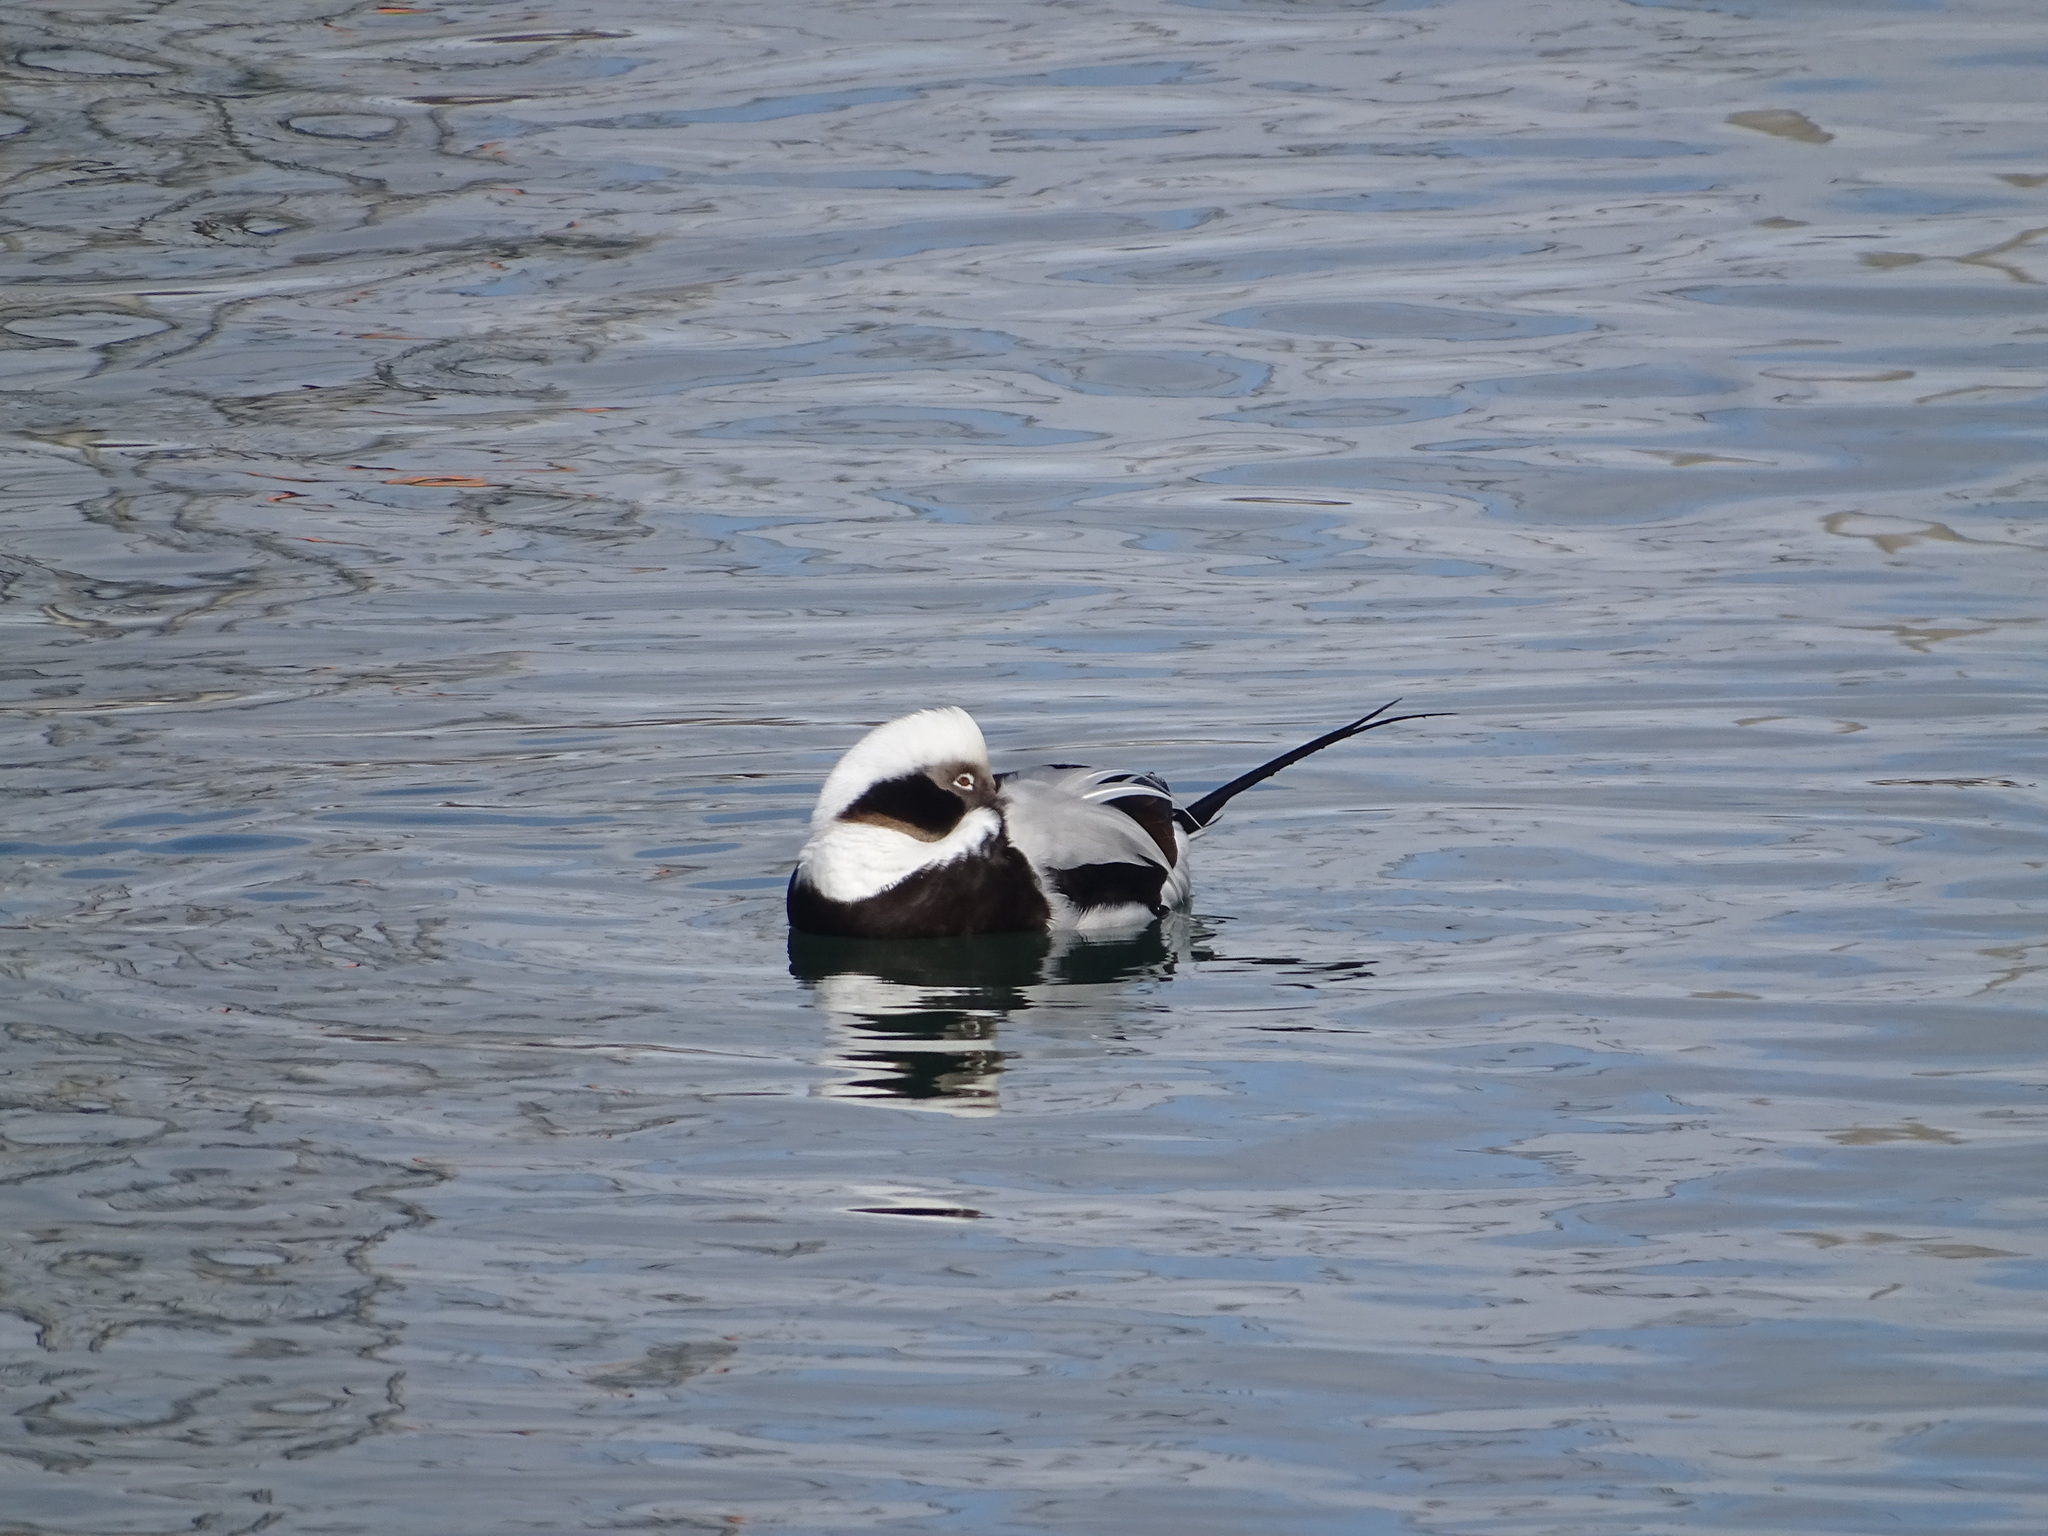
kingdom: Animalia
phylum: Chordata
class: Aves
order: Anseriformes
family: Anatidae
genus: Clangula
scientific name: Clangula hyemalis
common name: Long-tailed duck
